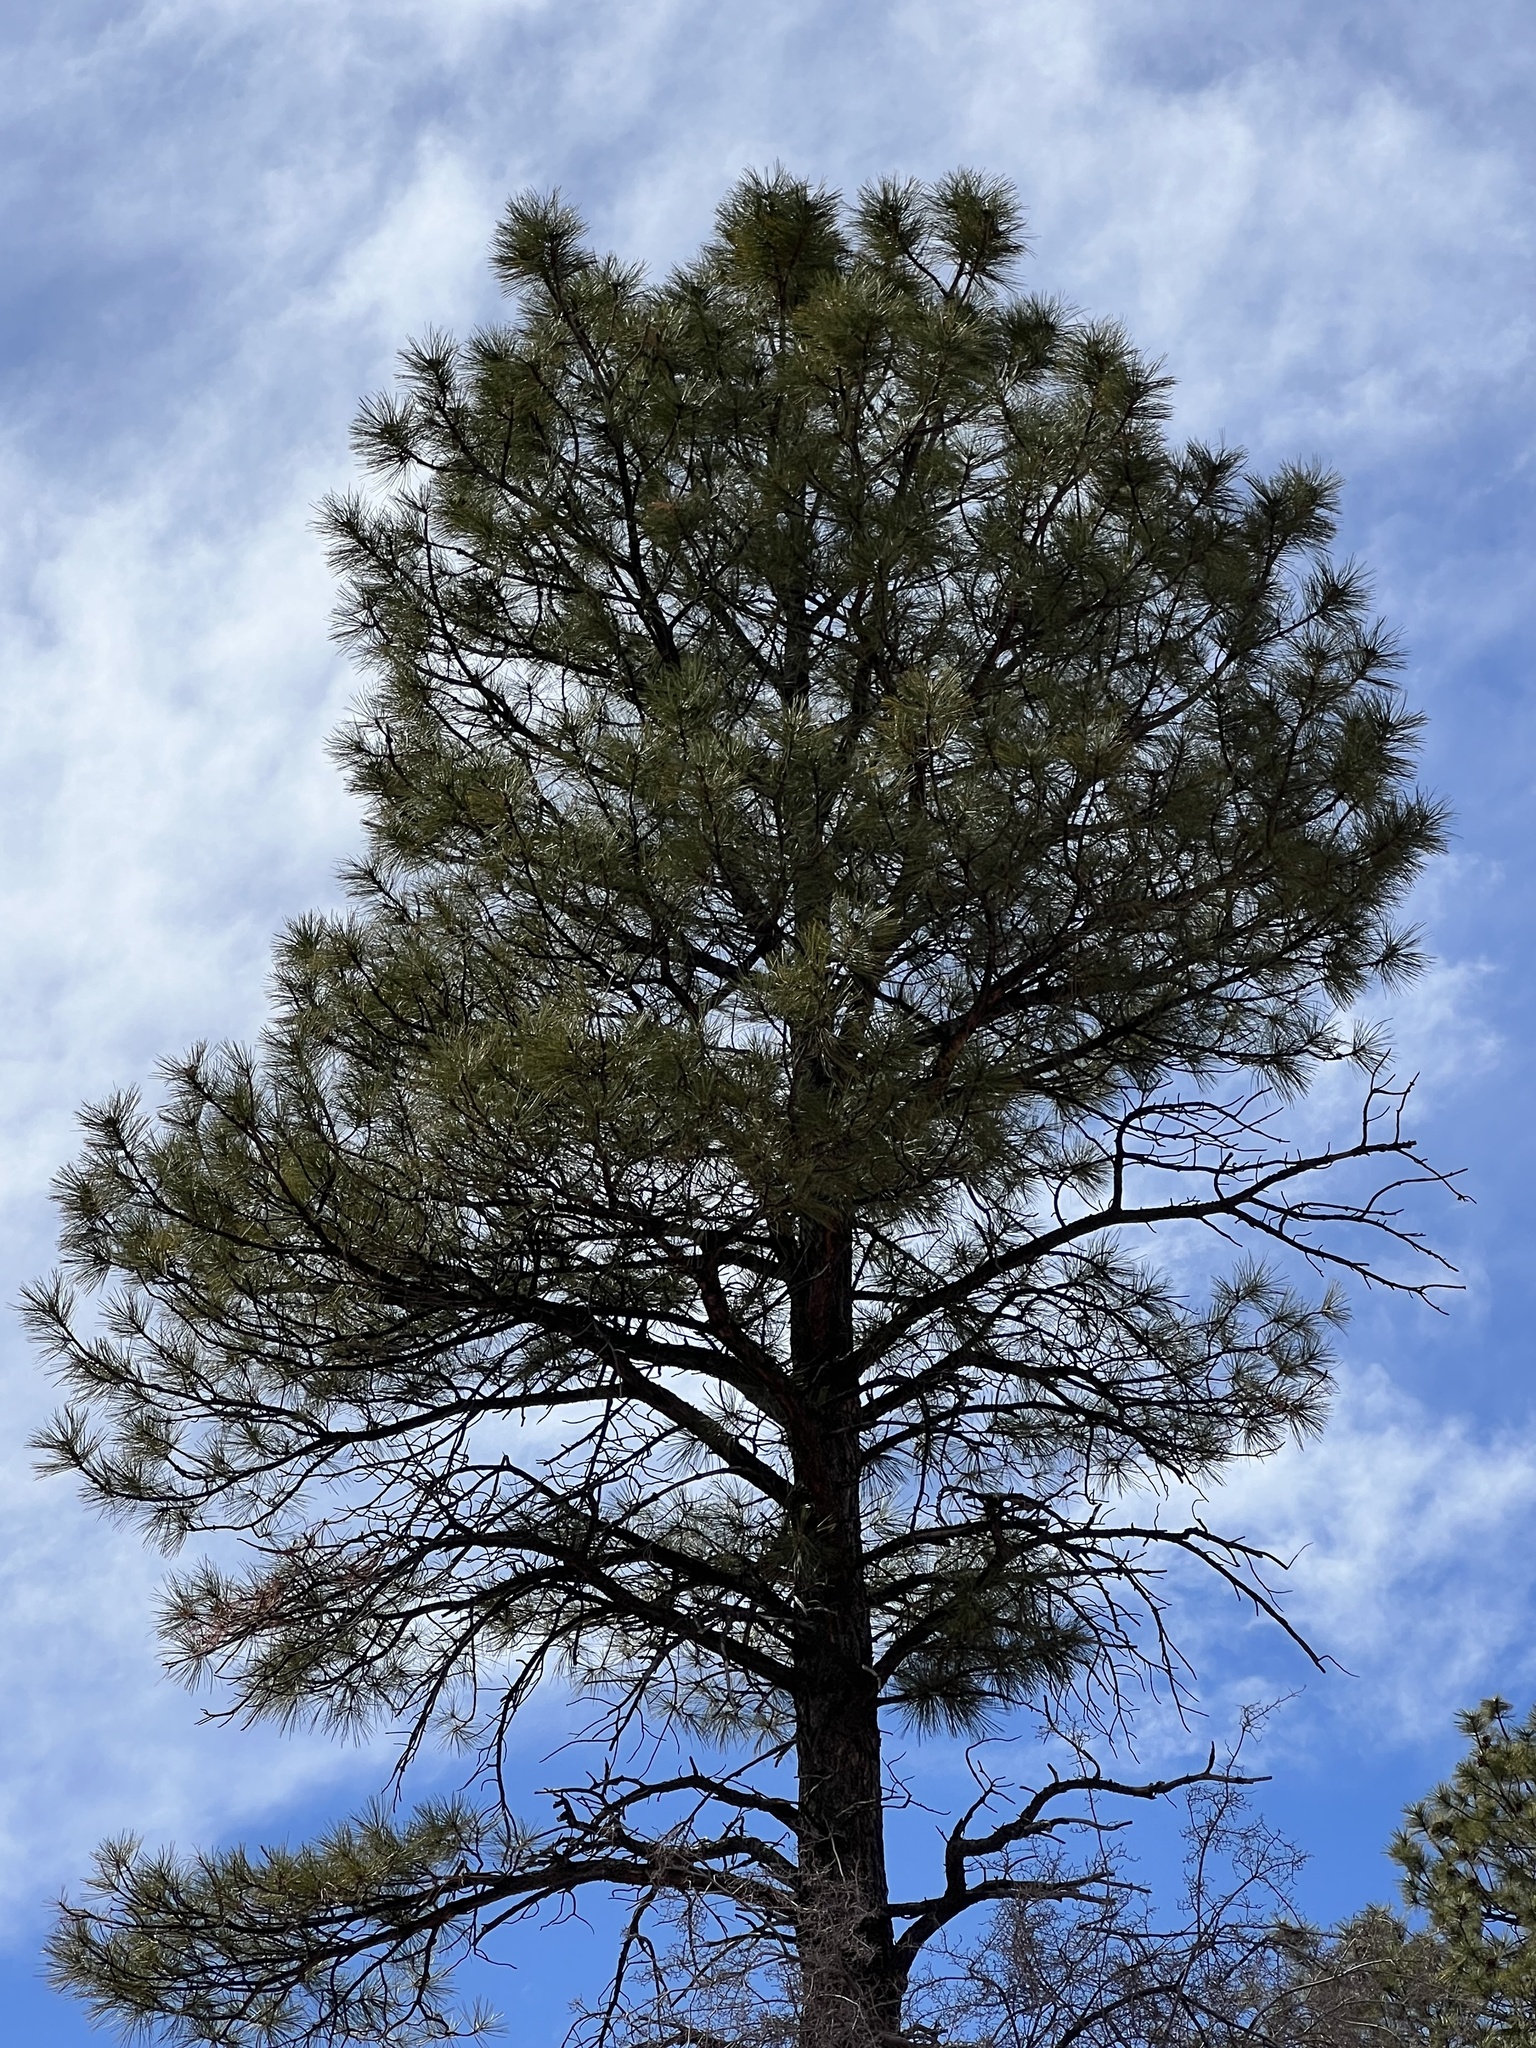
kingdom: Plantae
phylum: Tracheophyta
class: Pinopsida
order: Pinales
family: Pinaceae
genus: Pinus
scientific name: Pinus ponderosa
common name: Western yellow-pine
